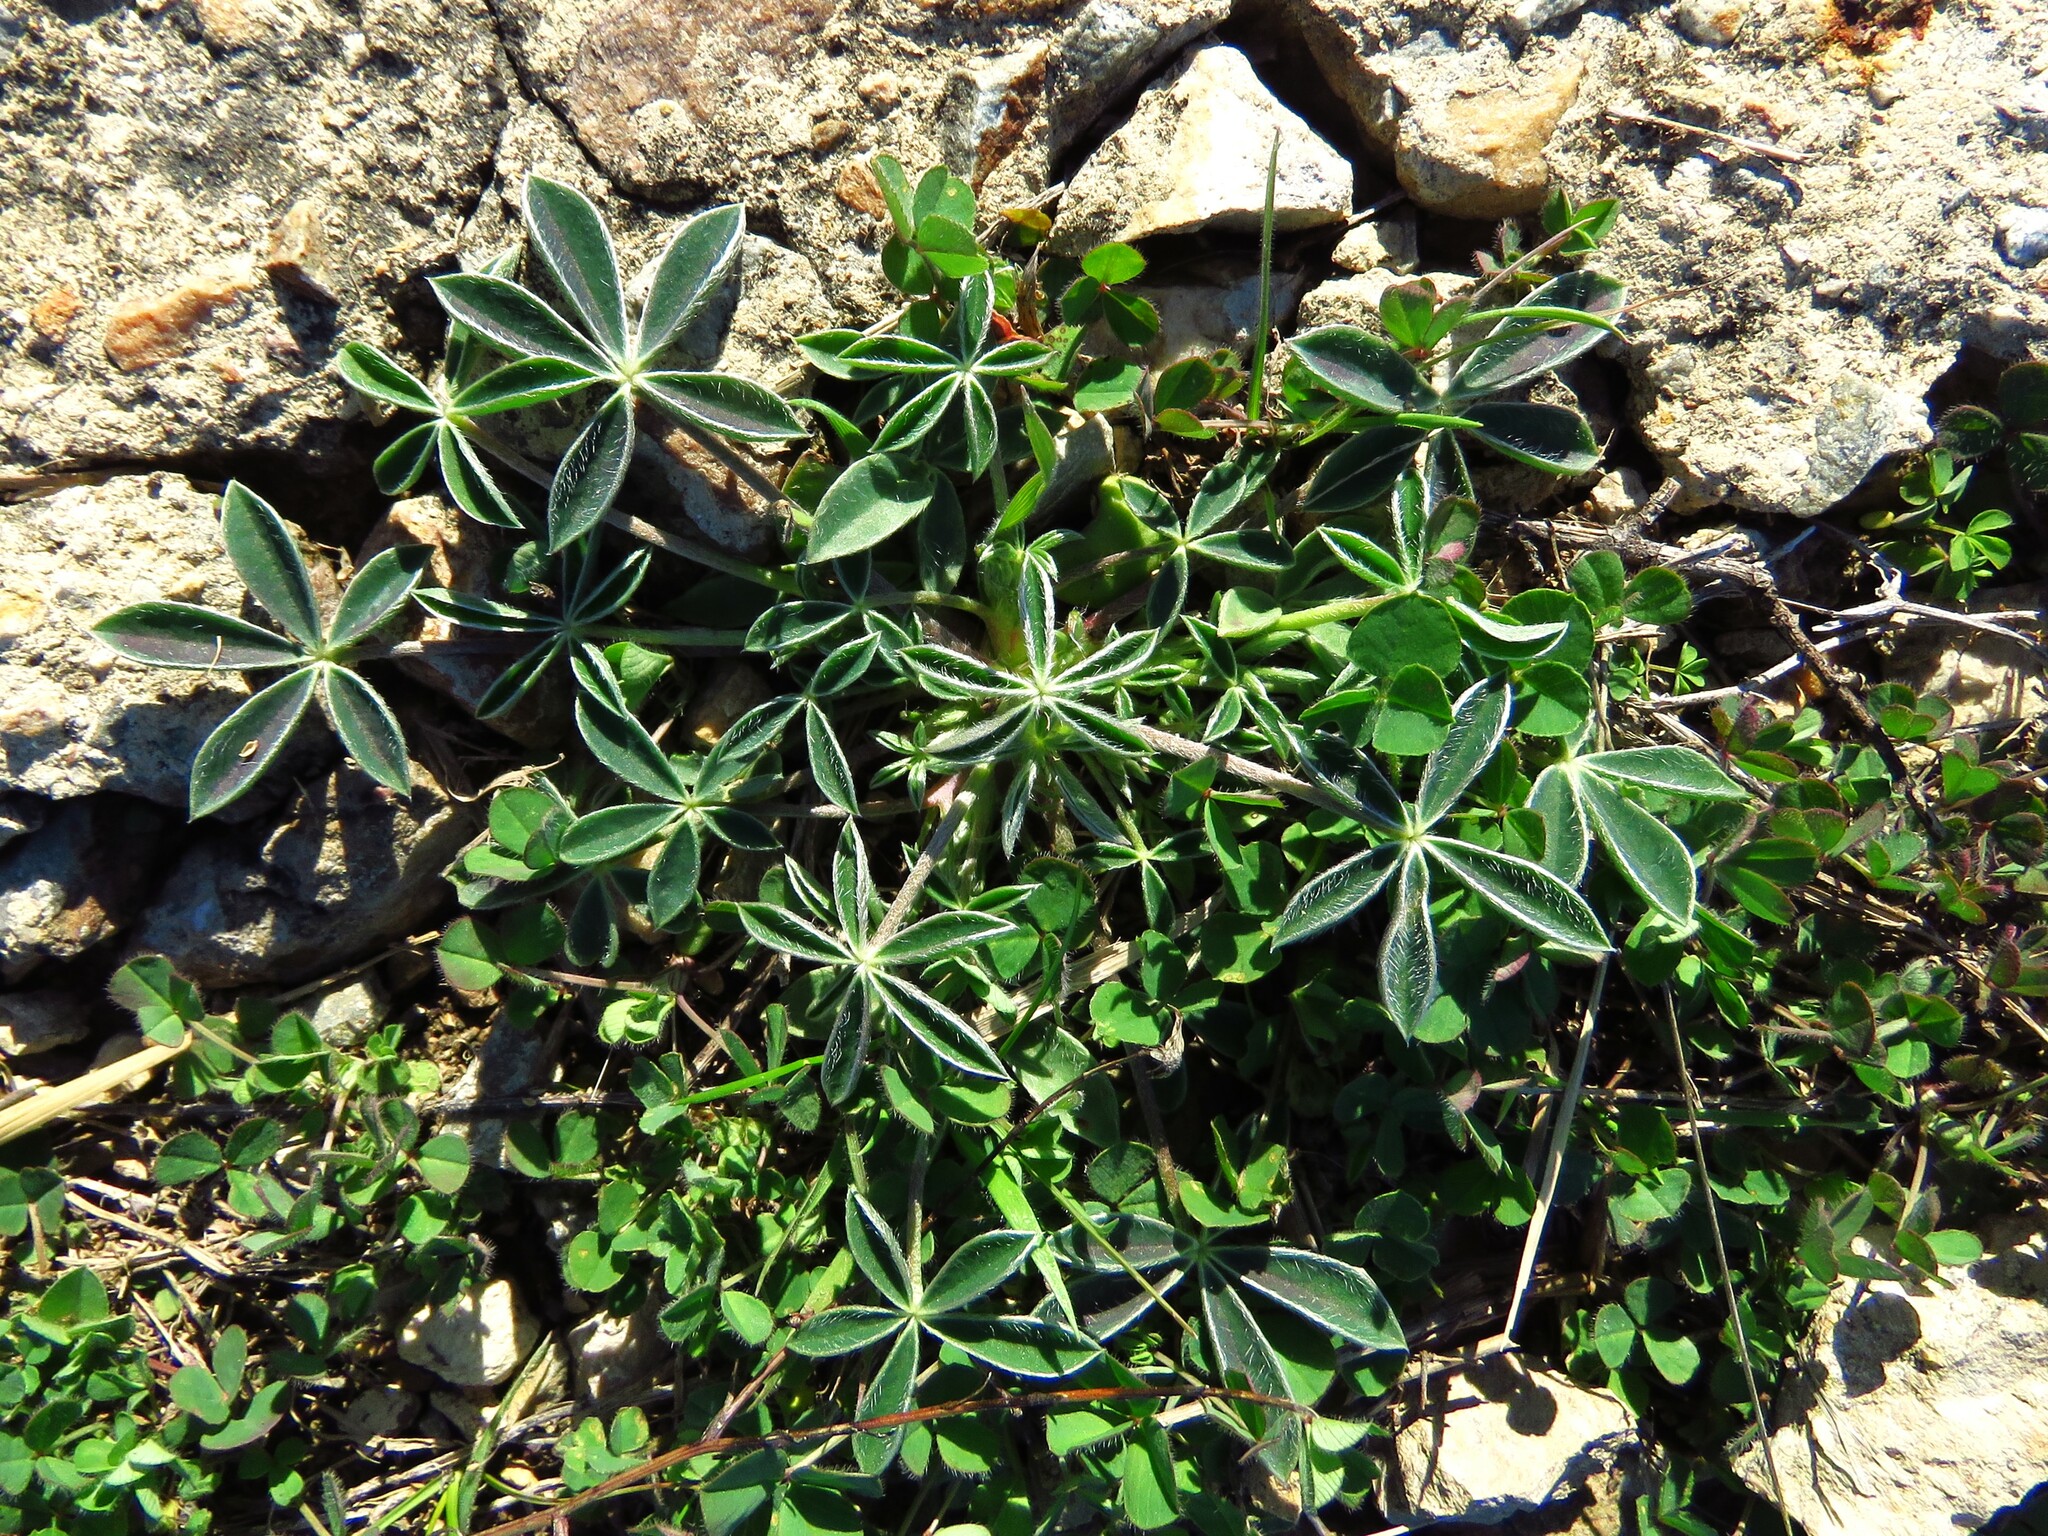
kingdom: Plantae
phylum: Tracheophyta
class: Magnoliopsida
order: Fabales
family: Fabaceae
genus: Lupinus
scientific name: Lupinus texensis
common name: Texas bluebonnet
